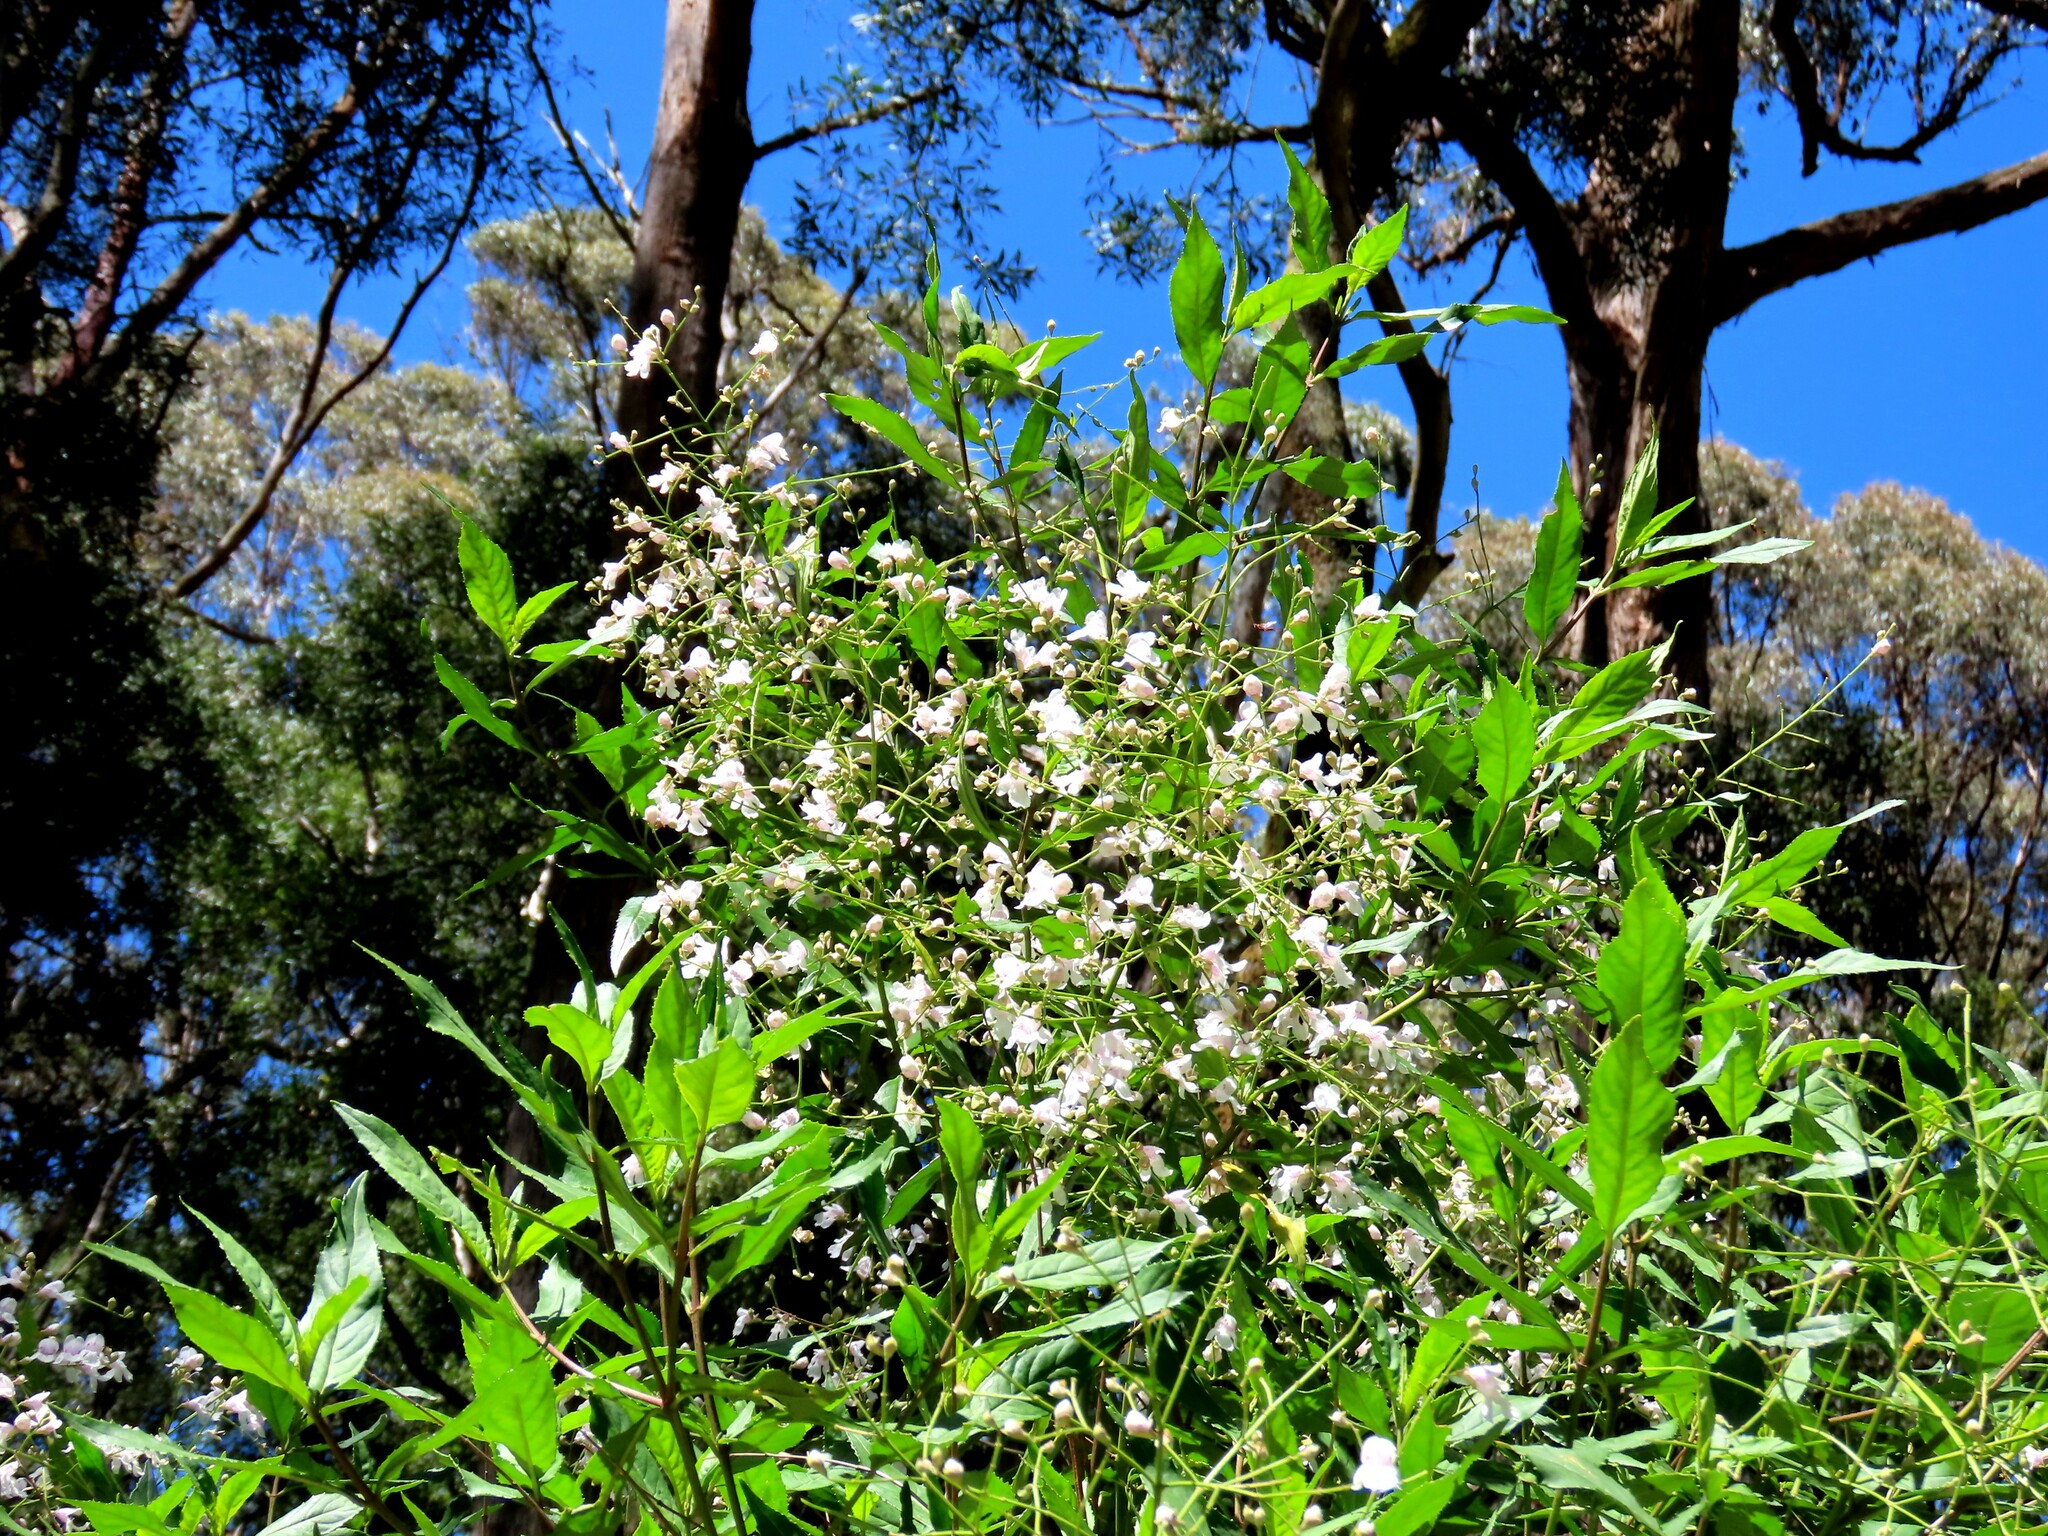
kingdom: Plantae
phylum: Tracheophyta
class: Magnoliopsida
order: Lamiales
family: Lamiaceae
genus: Prostanthera
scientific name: Prostanthera lasianthos
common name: Mountain-lilac
